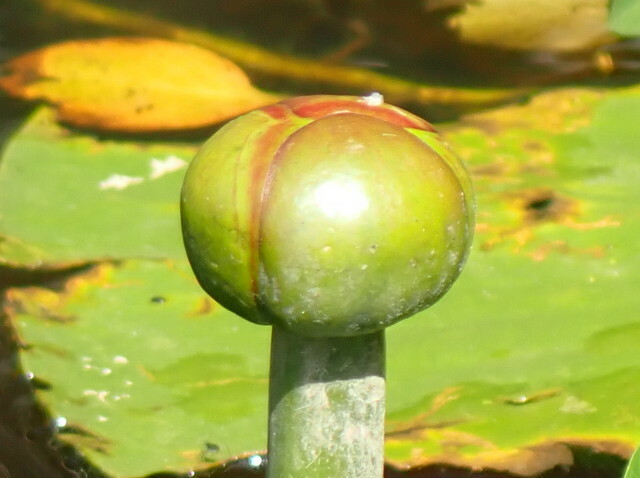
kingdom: Plantae
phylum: Tracheophyta
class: Magnoliopsida
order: Nymphaeales
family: Nymphaeaceae
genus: Nuphar
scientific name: Nuphar advena
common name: Spatter-dock
